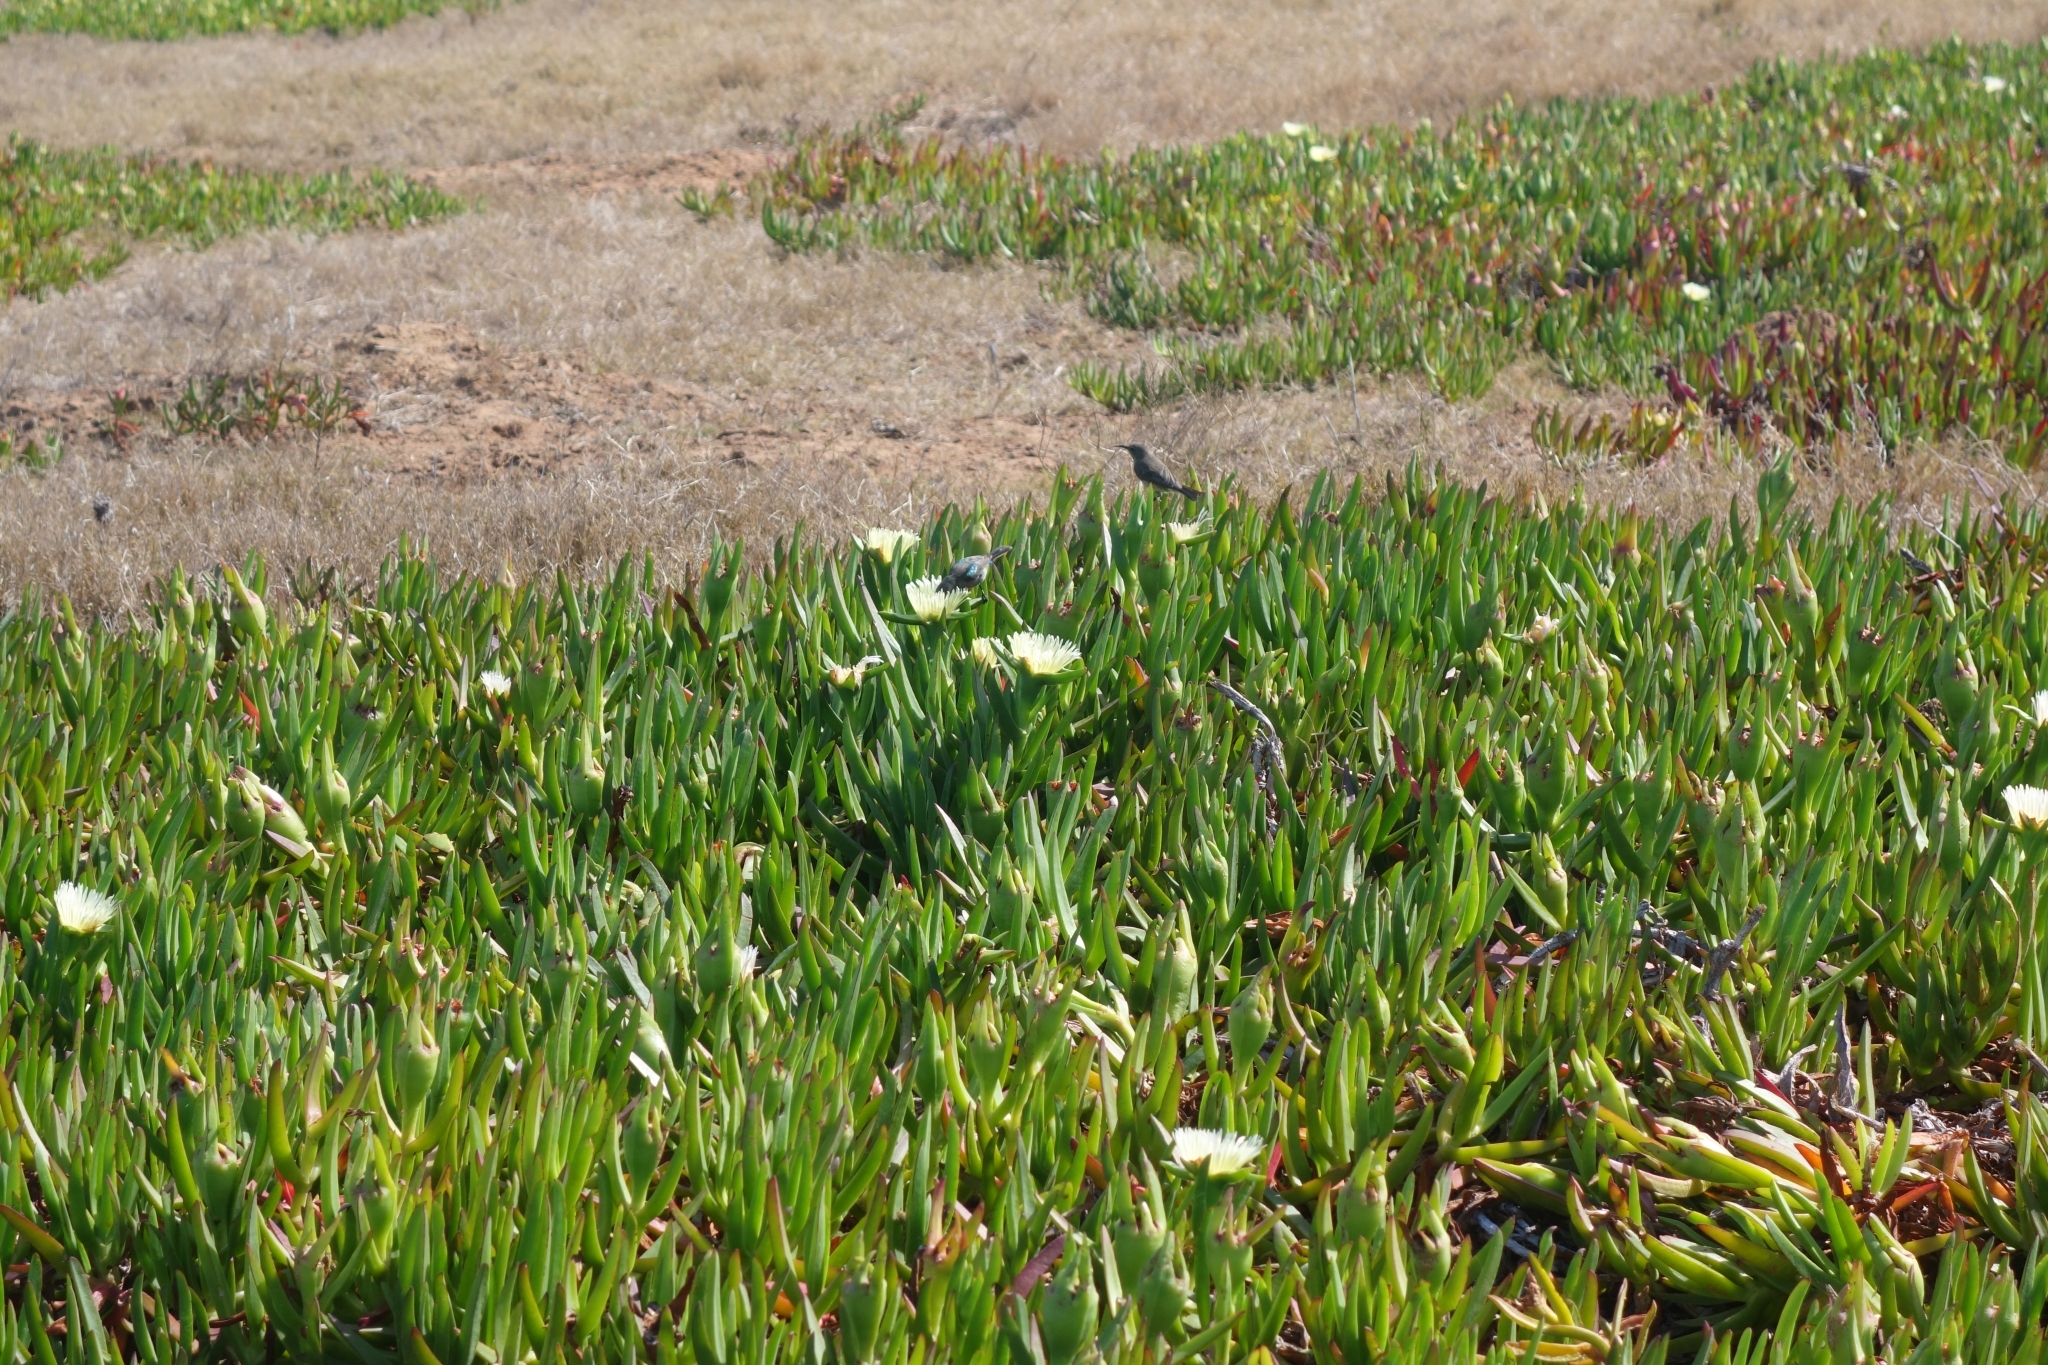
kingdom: Plantae
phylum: Tracheophyta
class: Magnoliopsida
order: Caryophyllales
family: Aizoaceae
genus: Carpobrotus
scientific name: Carpobrotus edulis
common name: Hottentot-fig
